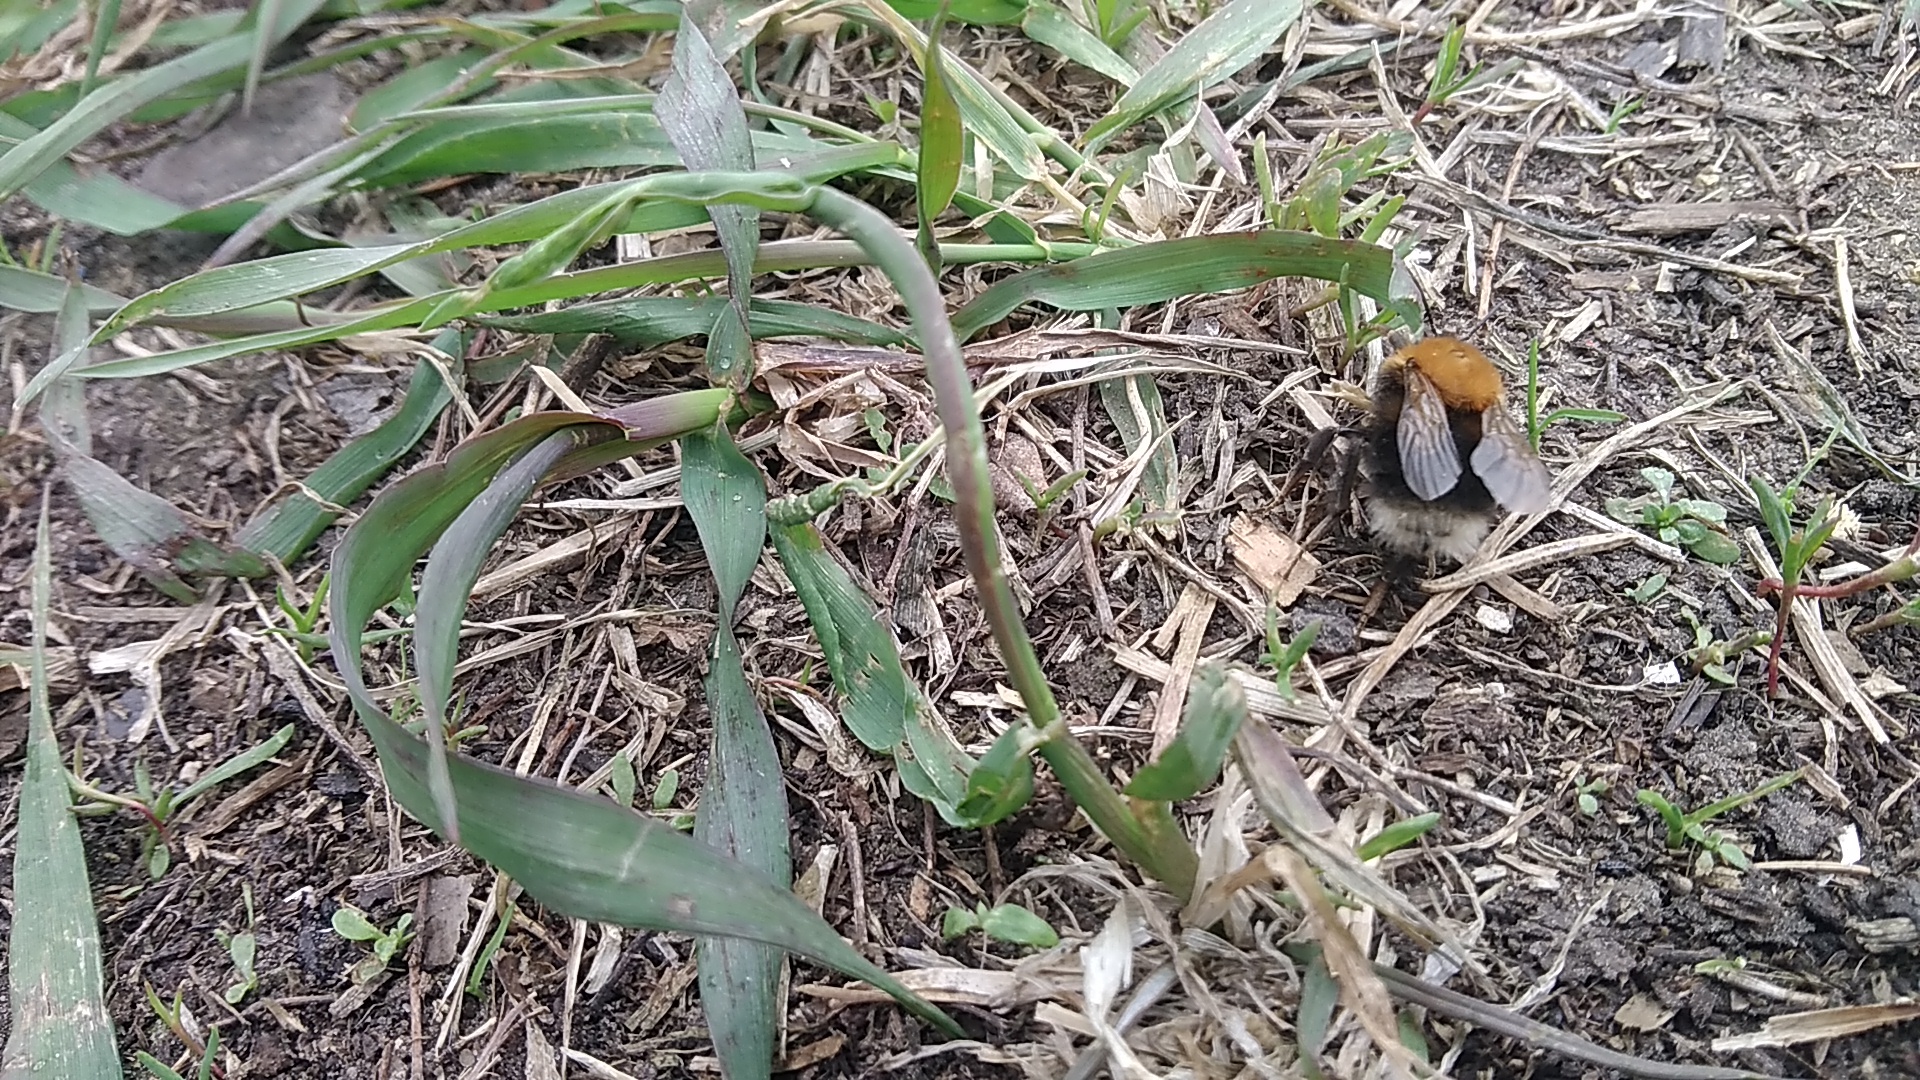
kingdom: Animalia
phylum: Arthropoda
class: Insecta
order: Hymenoptera
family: Apidae
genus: Bombus
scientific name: Bombus hypnorum
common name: New garden bumblebee
